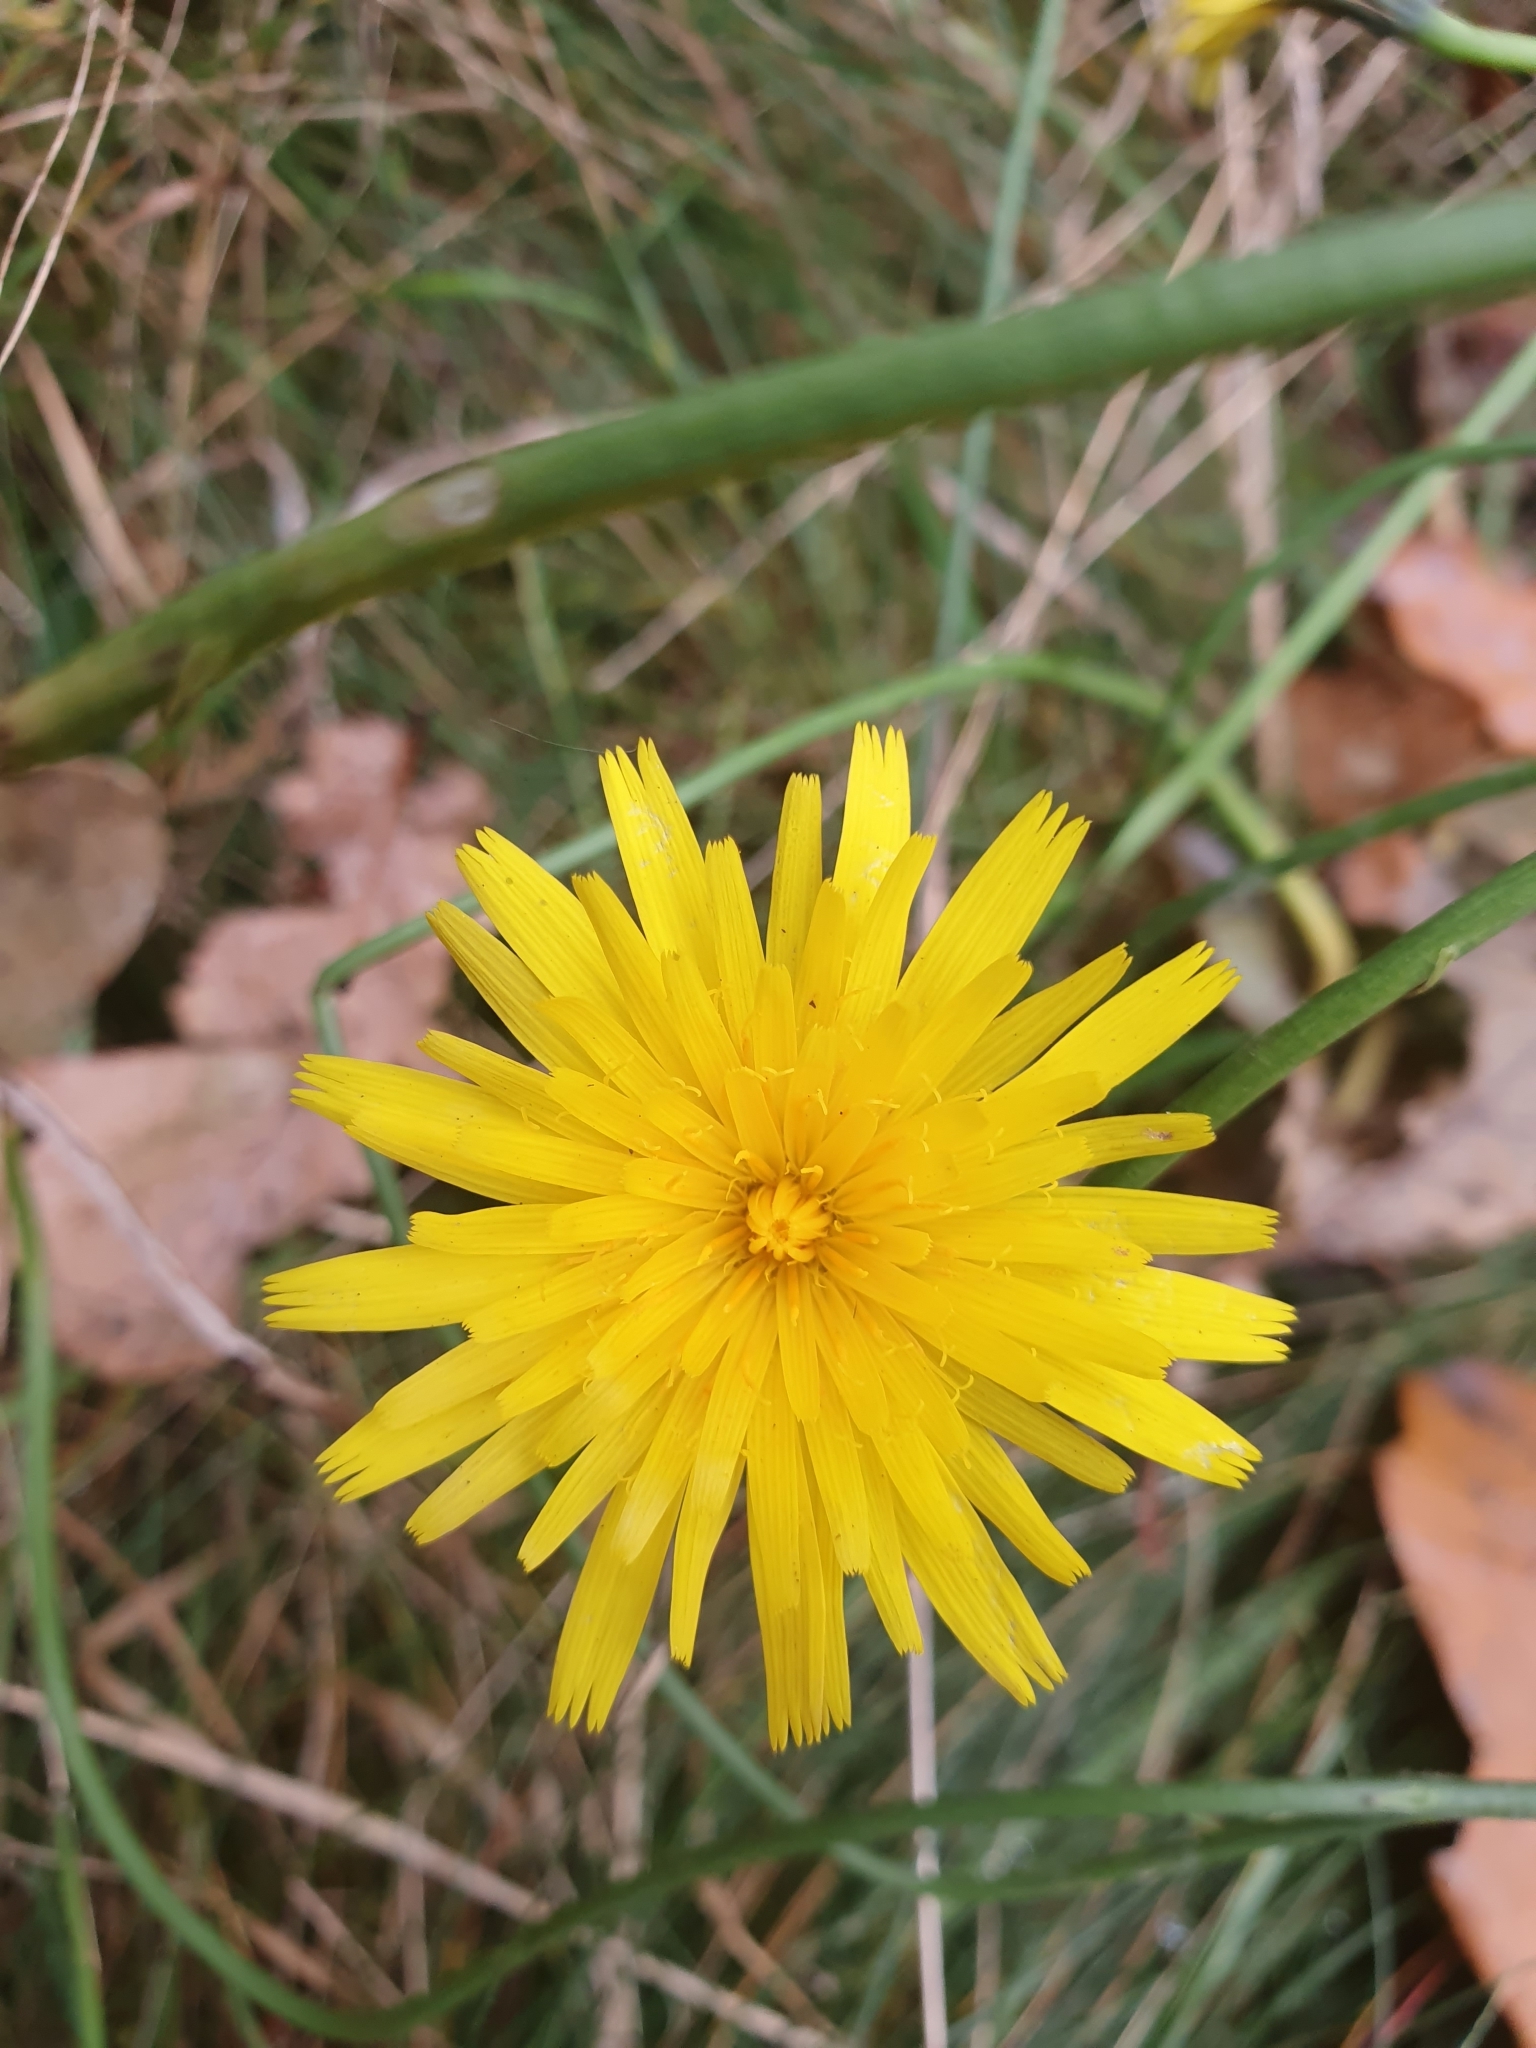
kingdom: Plantae
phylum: Tracheophyta
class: Magnoliopsida
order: Asterales
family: Asteraceae
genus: Hypochaeris
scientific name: Hypochaeris radicata
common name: Flatweed
